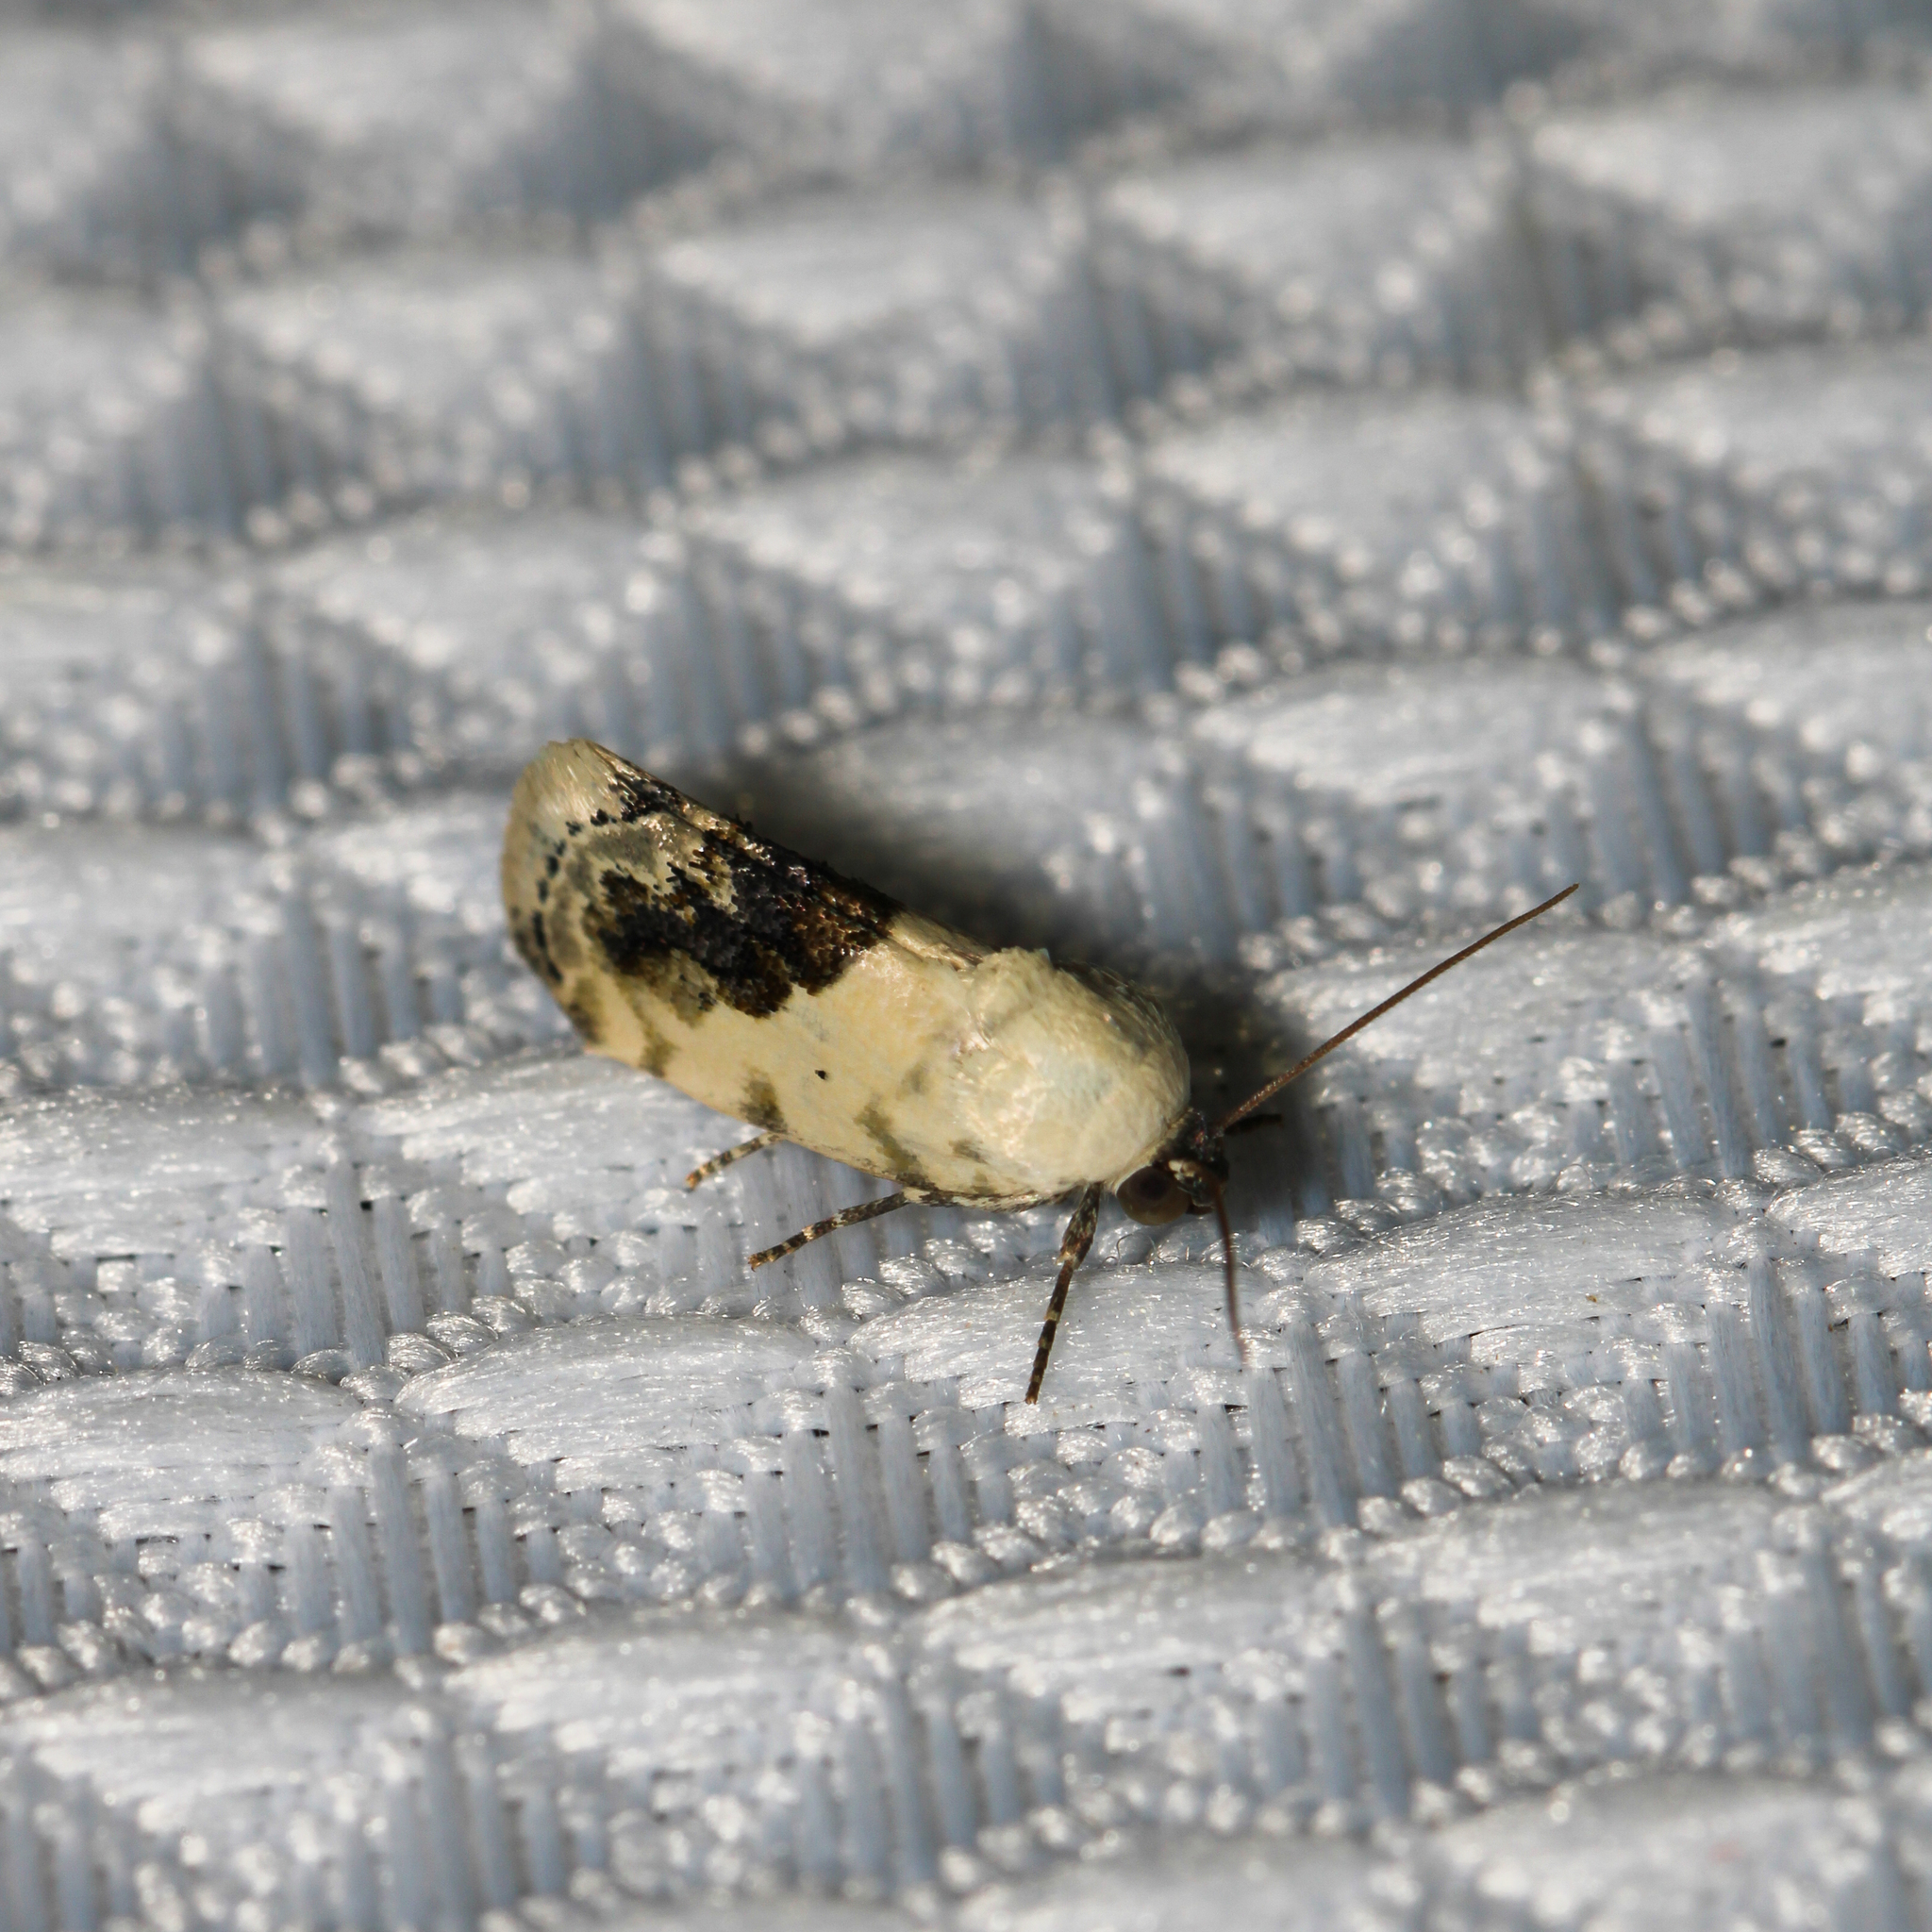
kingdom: Animalia
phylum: Arthropoda
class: Insecta
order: Lepidoptera
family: Noctuidae
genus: Acontia
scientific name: Acontia erastrioides
